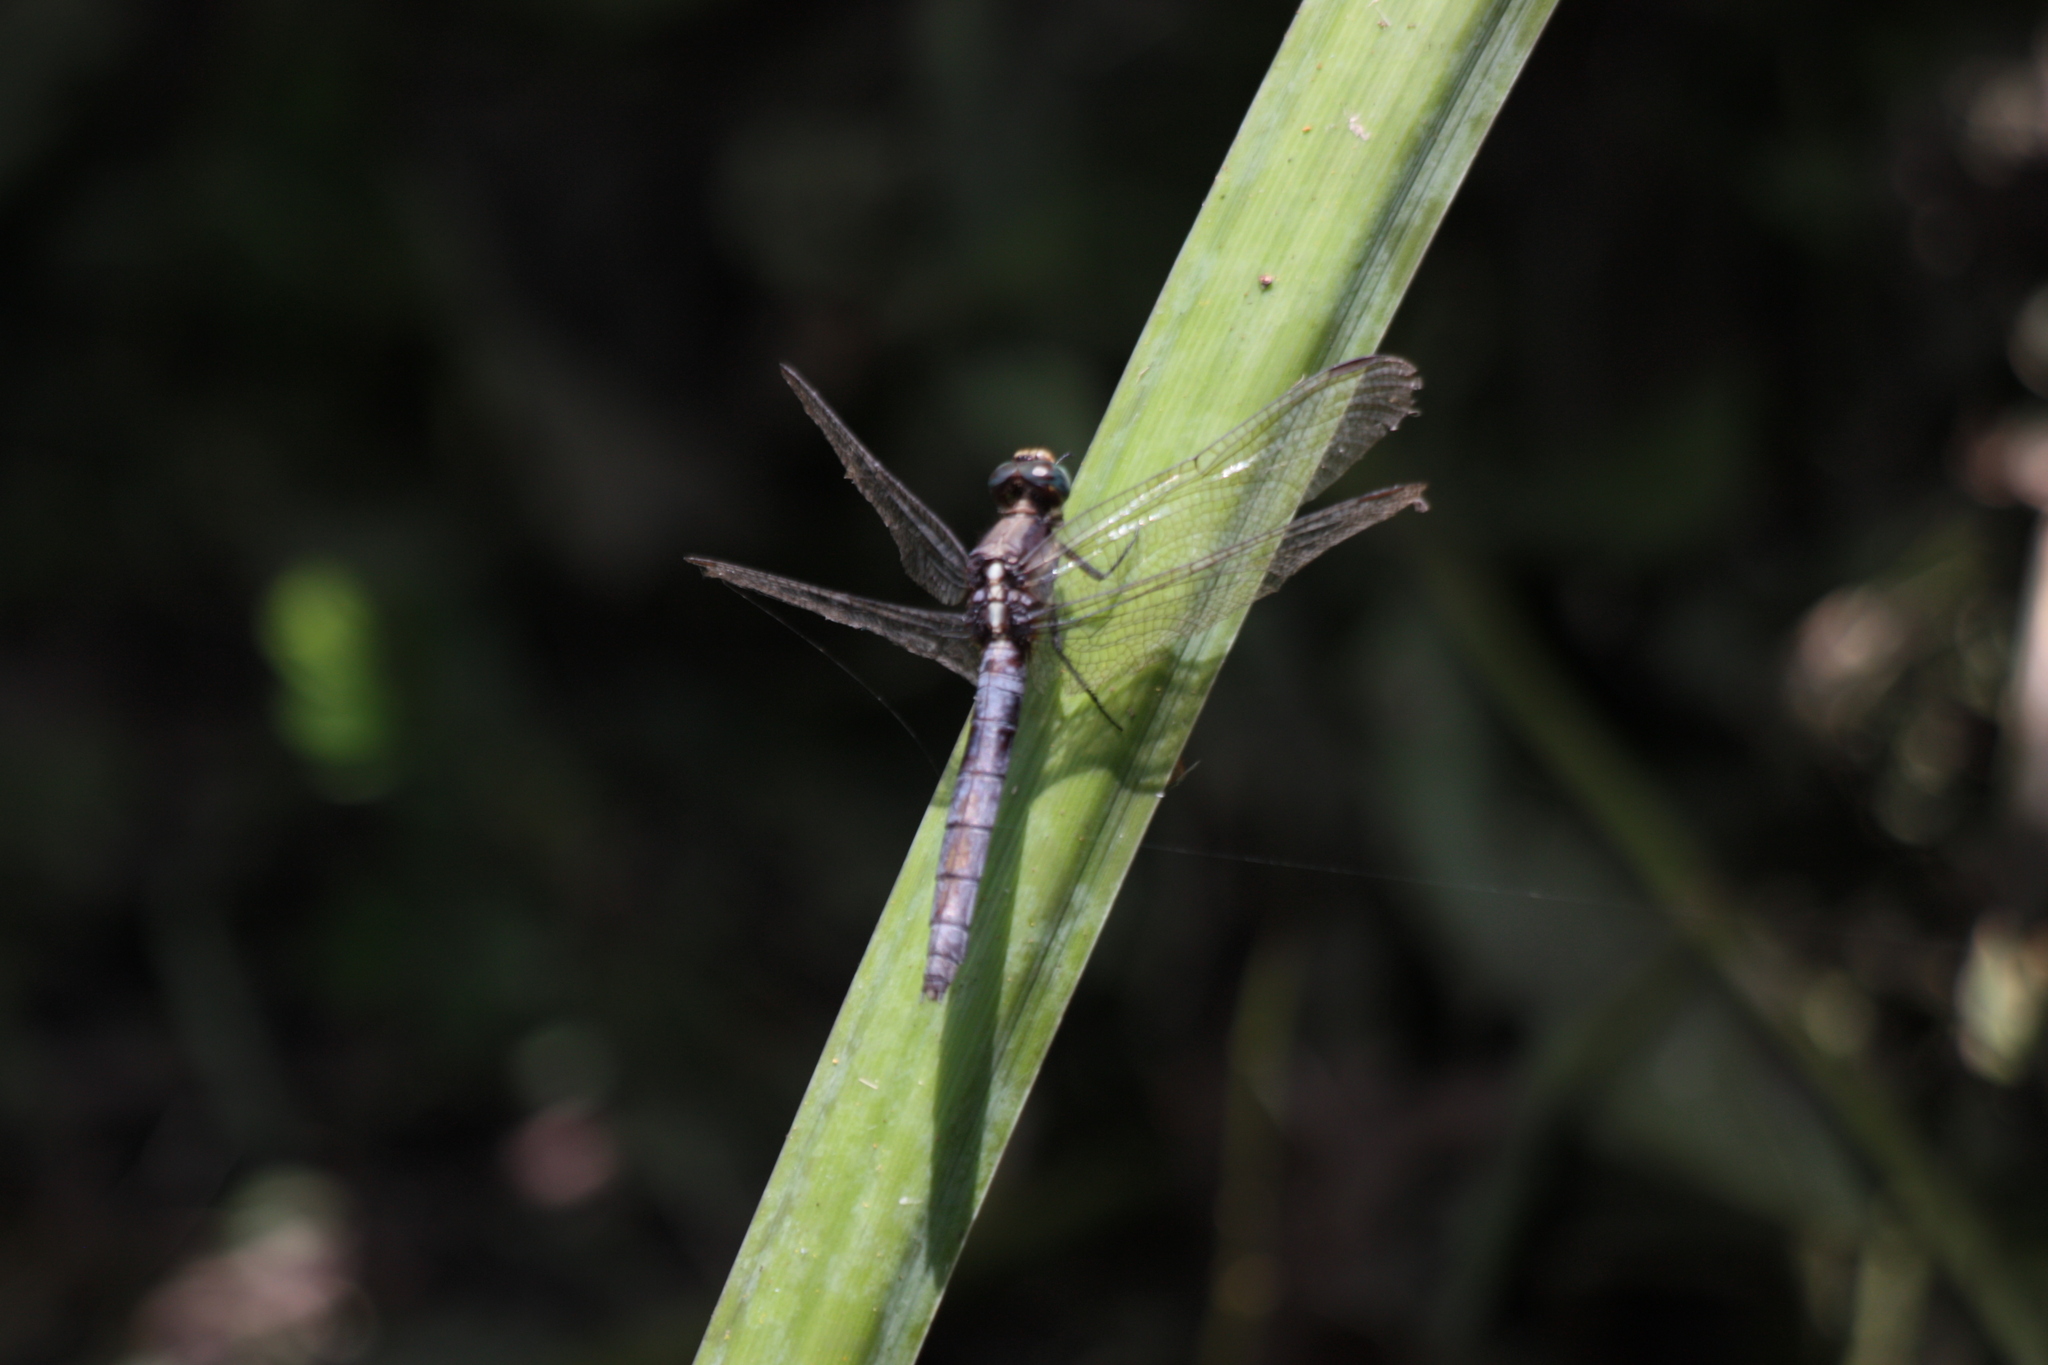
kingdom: Animalia
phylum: Arthropoda
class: Insecta
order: Odonata
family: Libellulidae
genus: Orthetrum
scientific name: Orthetrum glaucum
